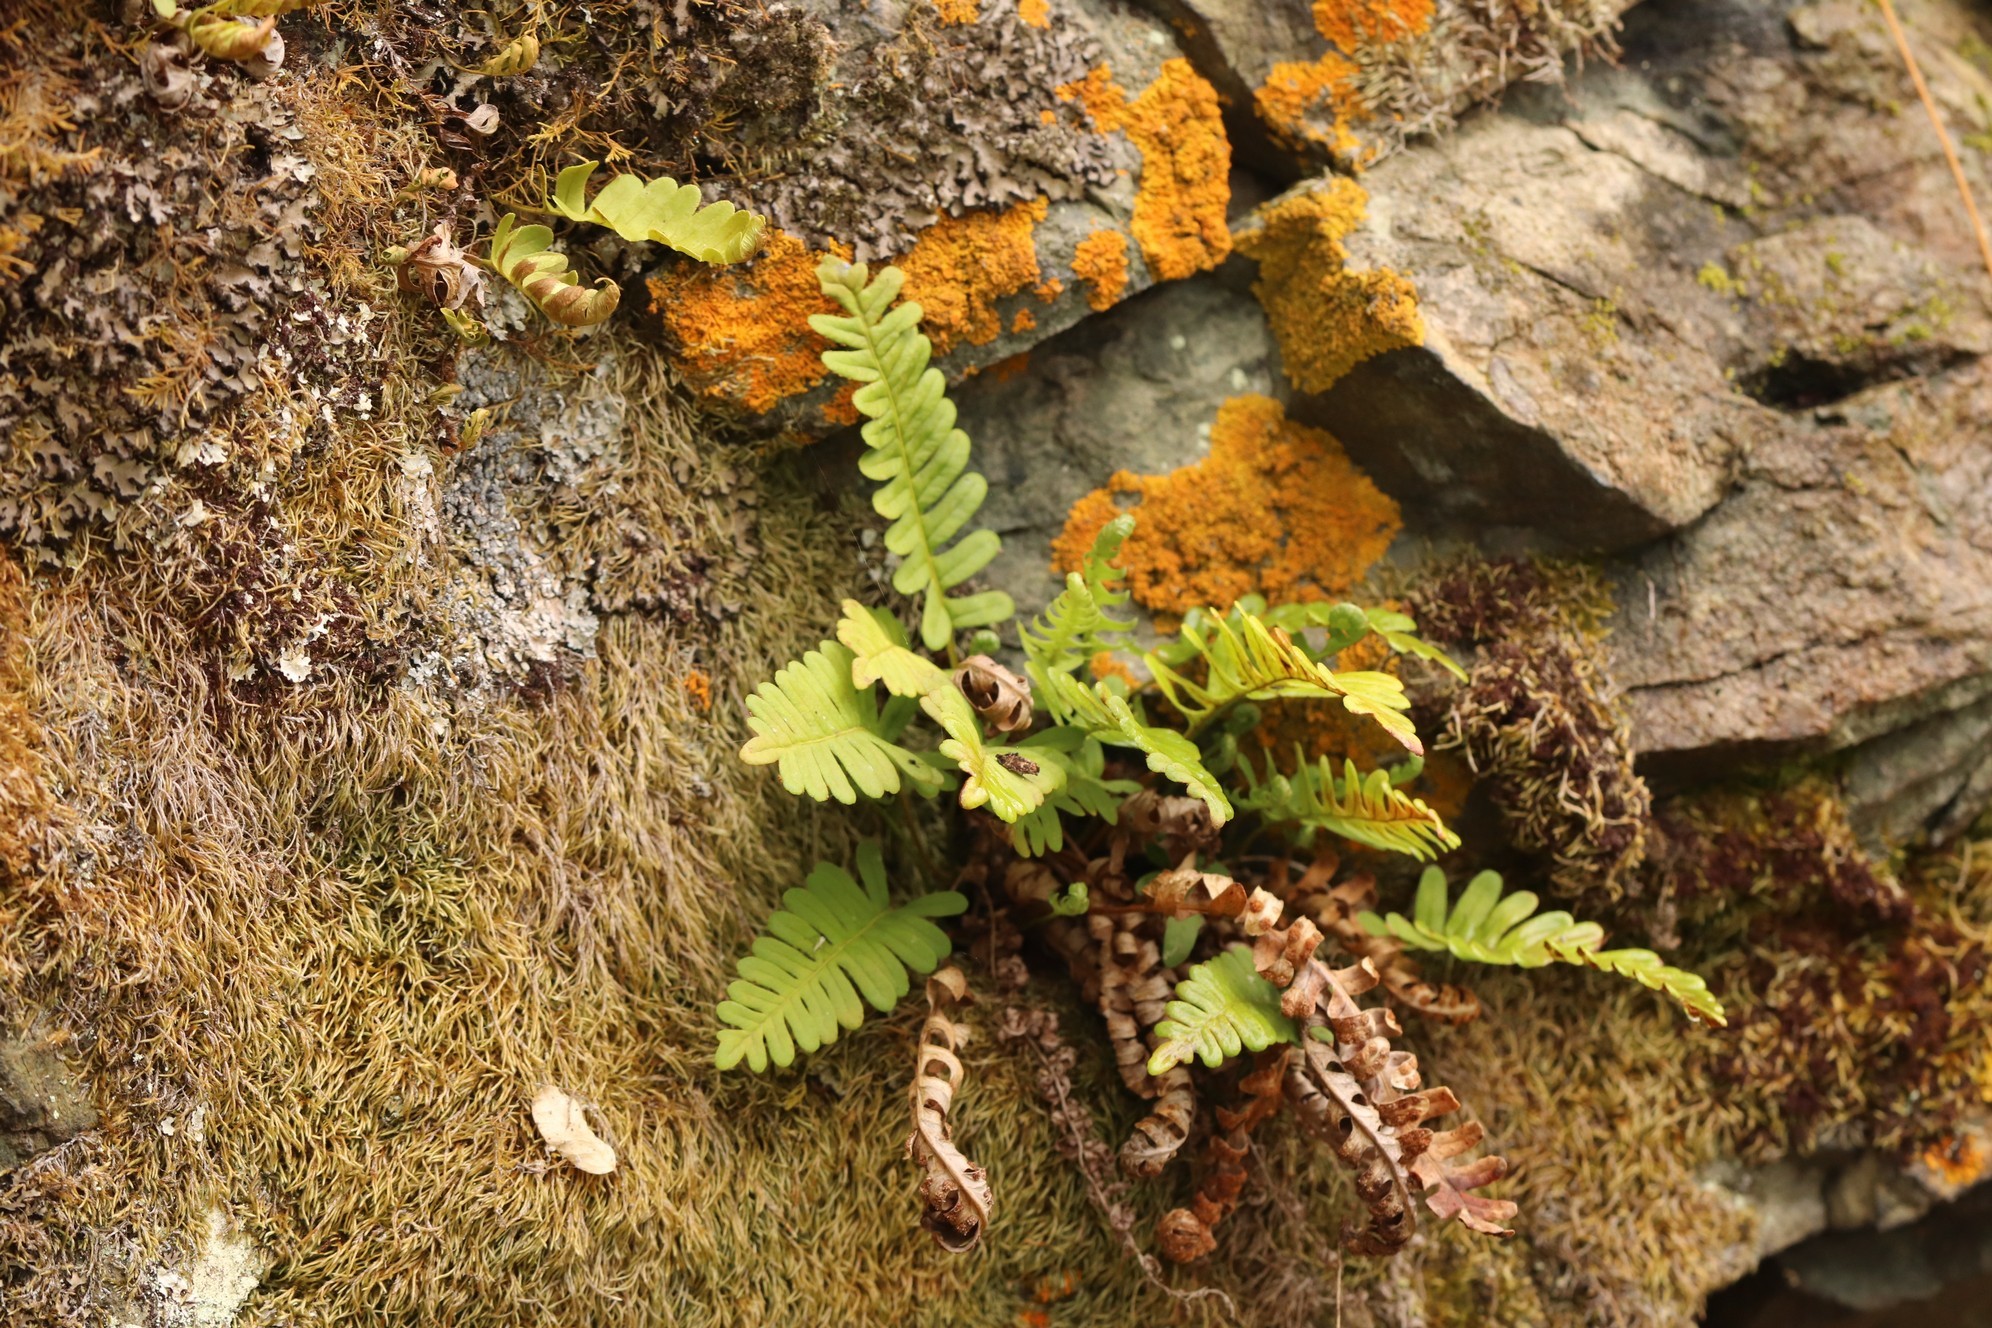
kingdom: Plantae
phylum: Tracheophyta
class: Polypodiopsida
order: Polypodiales
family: Polypodiaceae
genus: Polypodium
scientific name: Polypodium vulgare
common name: Common polypody
